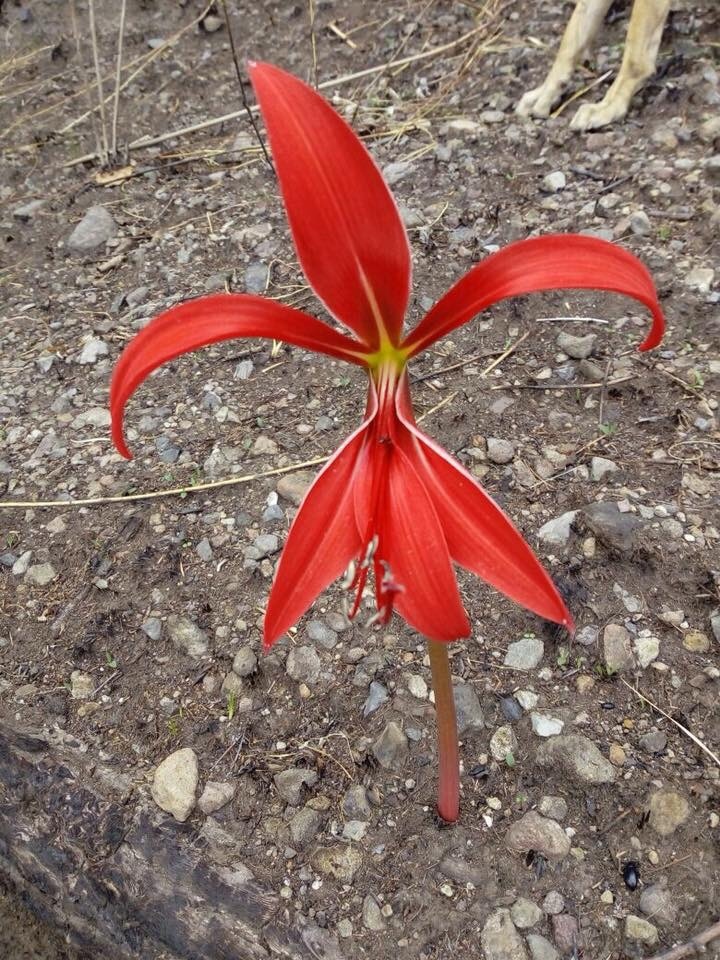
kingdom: Plantae
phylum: Tracheophyta
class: Liliopsida
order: Asparagales
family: Amaryllidaceae
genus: Sprekelia
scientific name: Sprekelia formosissima
